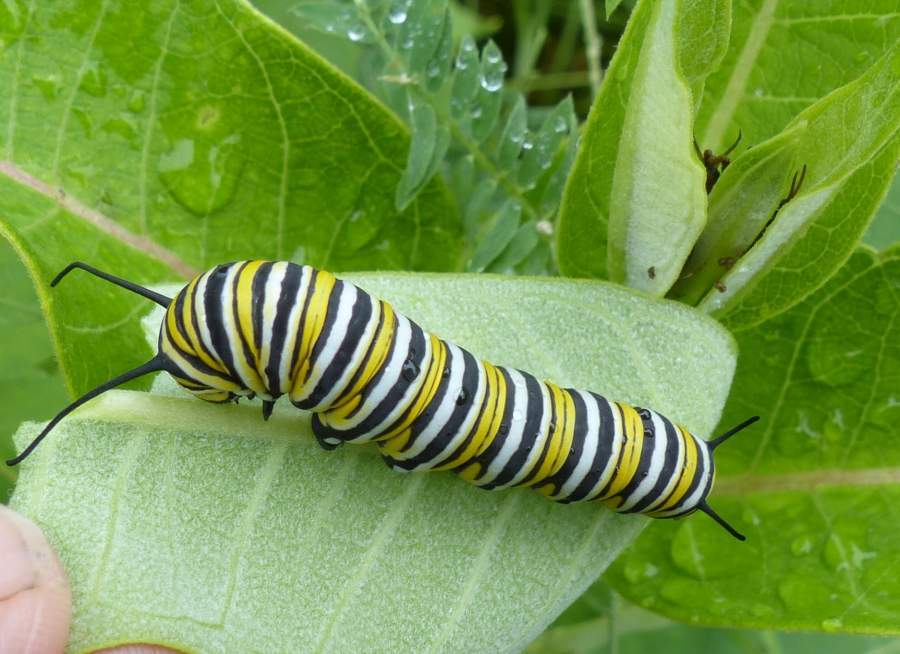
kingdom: Animalia
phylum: Arthropoda
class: Insecta
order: Lepidoptera
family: Nymphalidae
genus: Danaus
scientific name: Danaus plexippus
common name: Monarch
